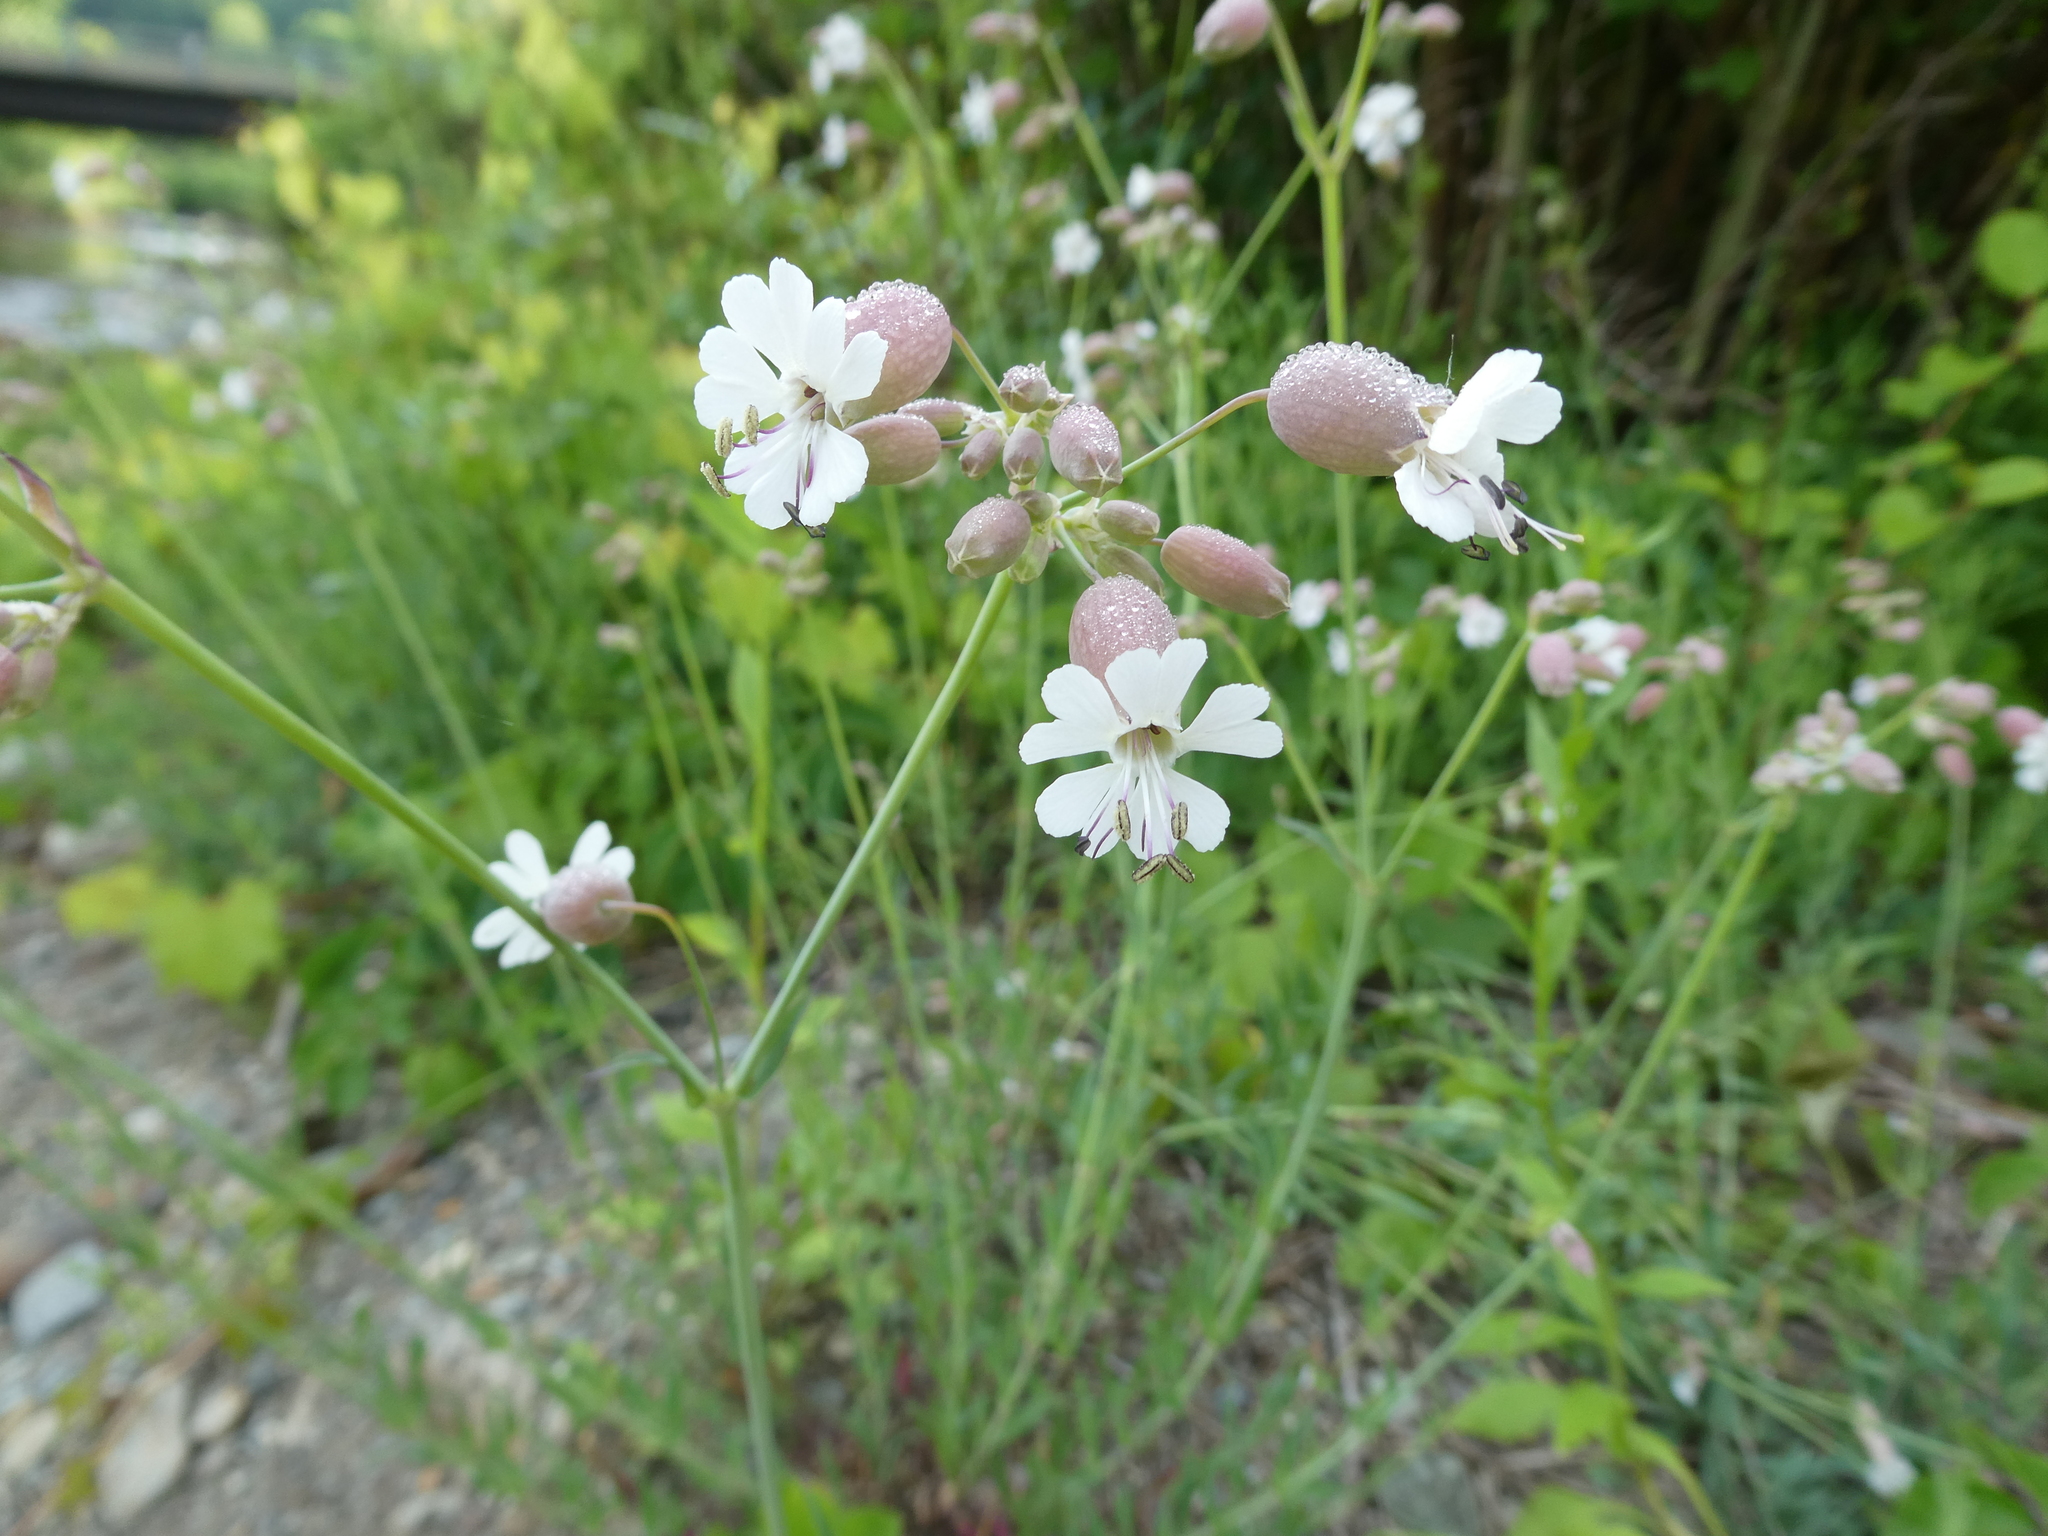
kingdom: Plantae
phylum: Tracheophyta
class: Magnoliopsida
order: Caryophyllales
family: Caryophyllaceae
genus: Silene
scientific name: Silene vulgaris
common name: Bladder campion
